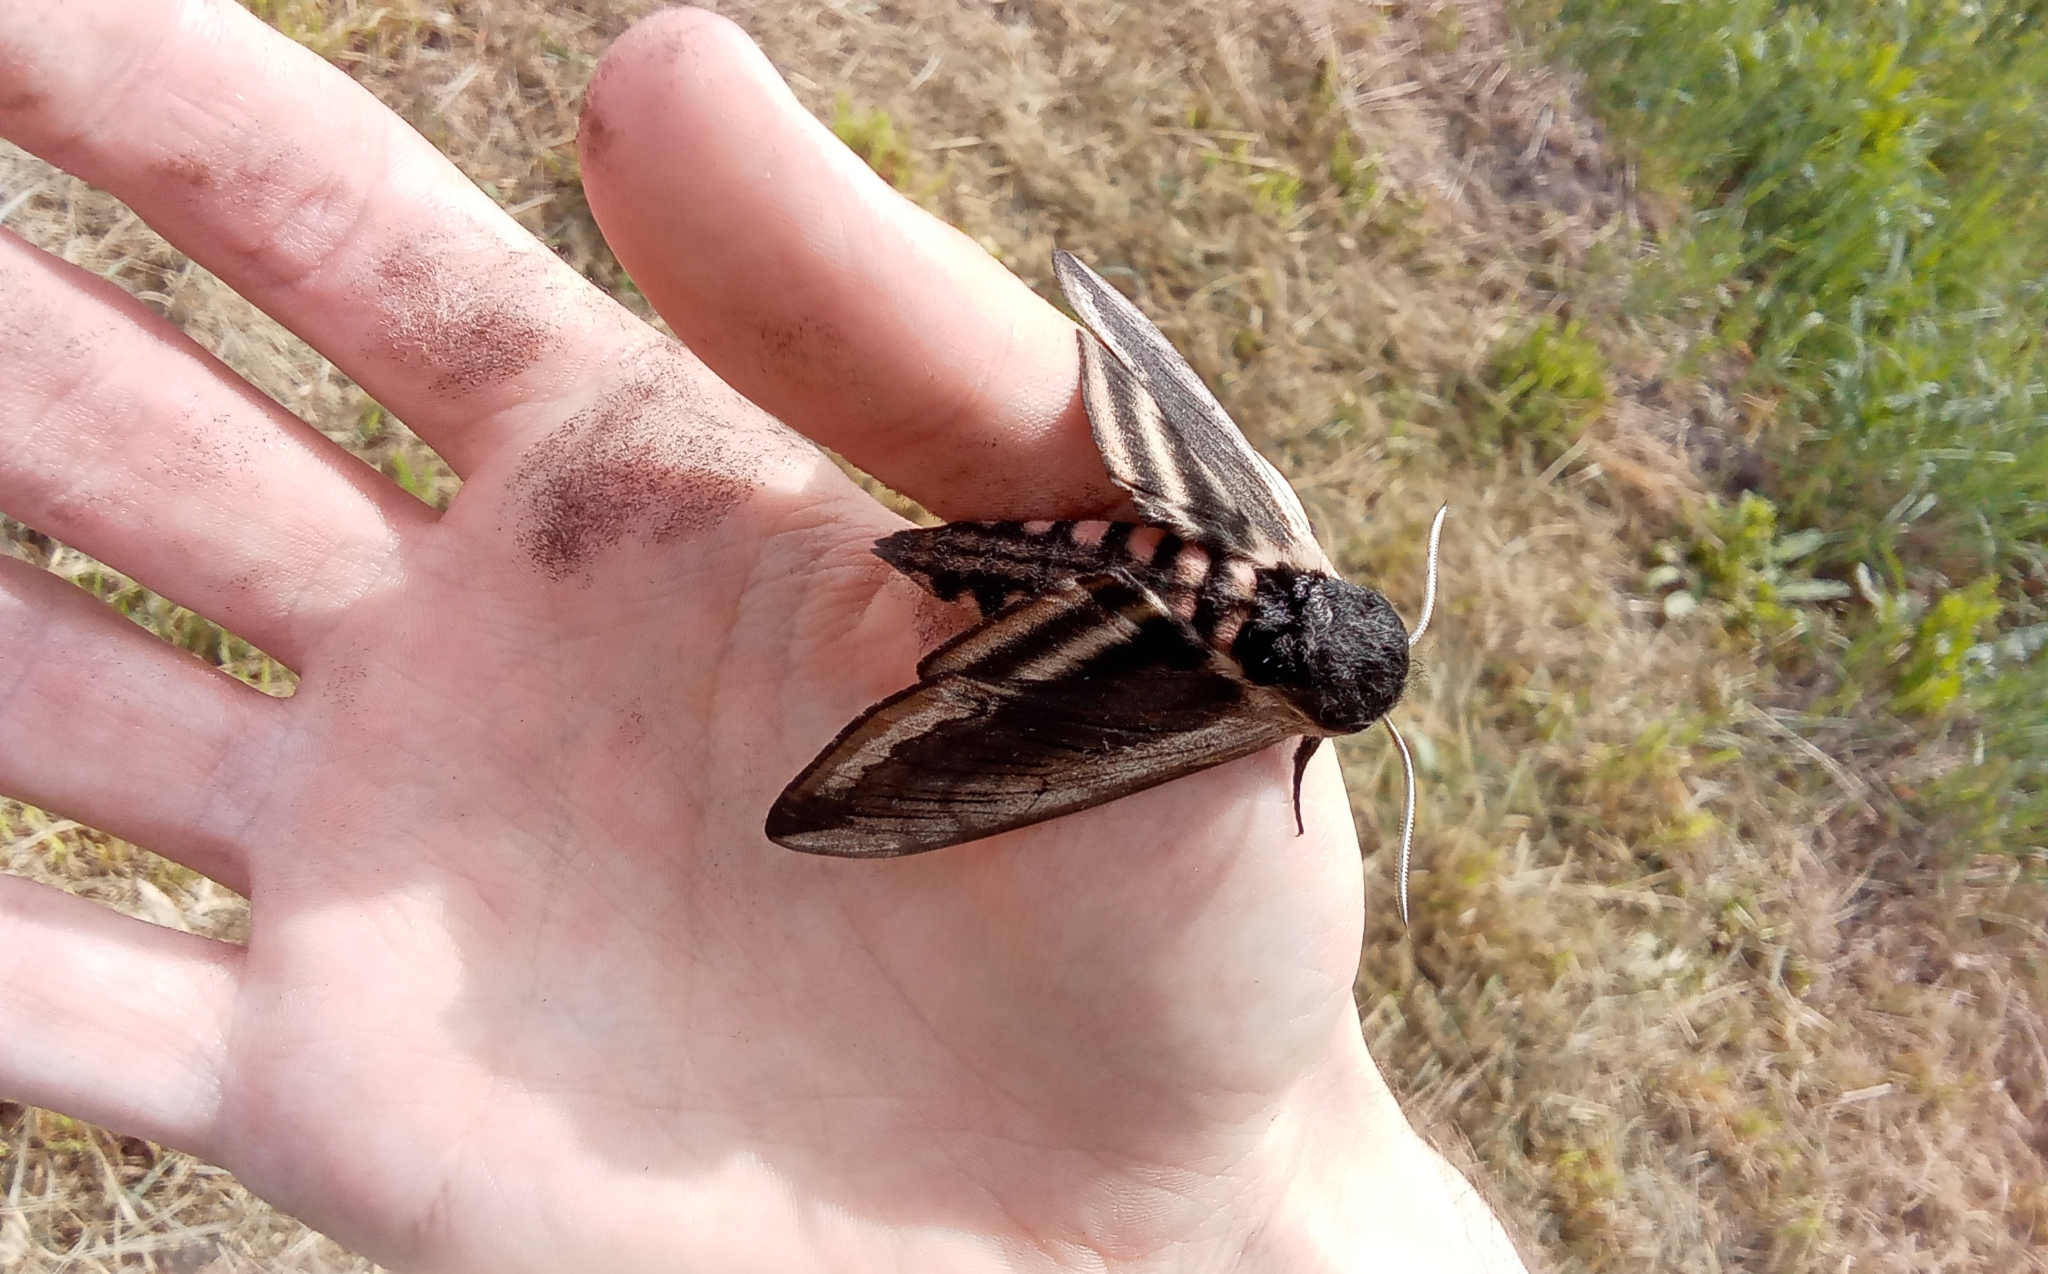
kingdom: Animalia
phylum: Arthropoda
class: Insecta
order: Lepidoptera
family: Sphingidae
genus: Sphinx
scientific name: Sphinx ligustri
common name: Privet hawk-moth
